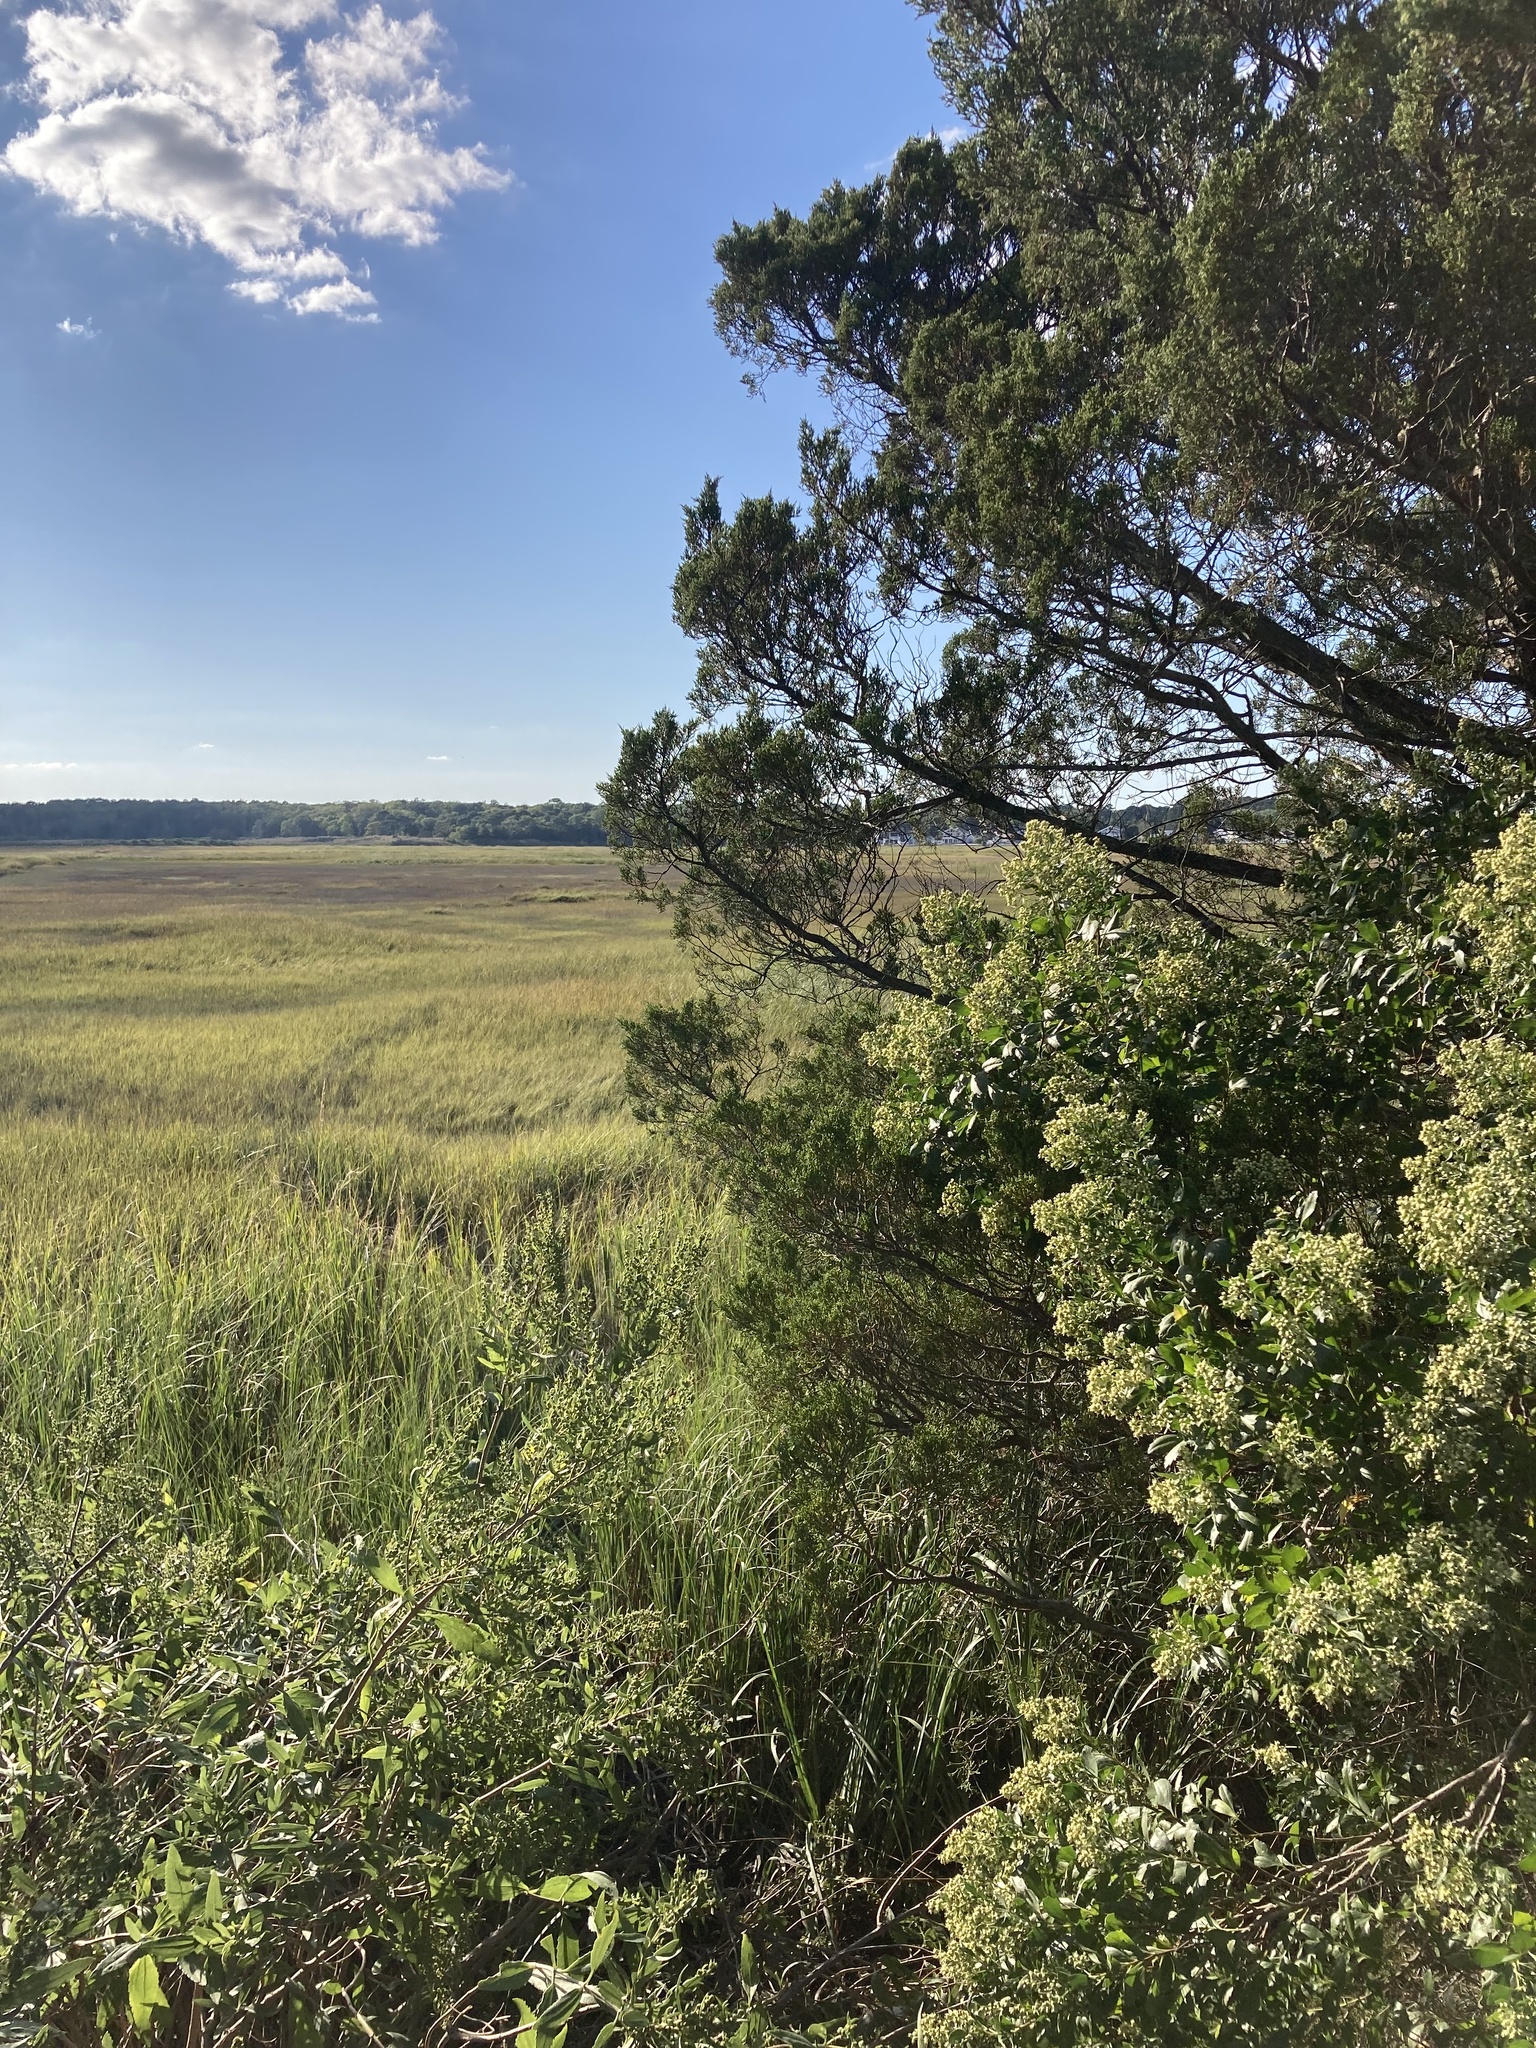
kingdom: Plantae
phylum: Tracheophyta
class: Magnoliopsida
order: Asterales
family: Asteraceae
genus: Baccharis
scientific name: Baccharis halimifolia
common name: Eastern baccharis
